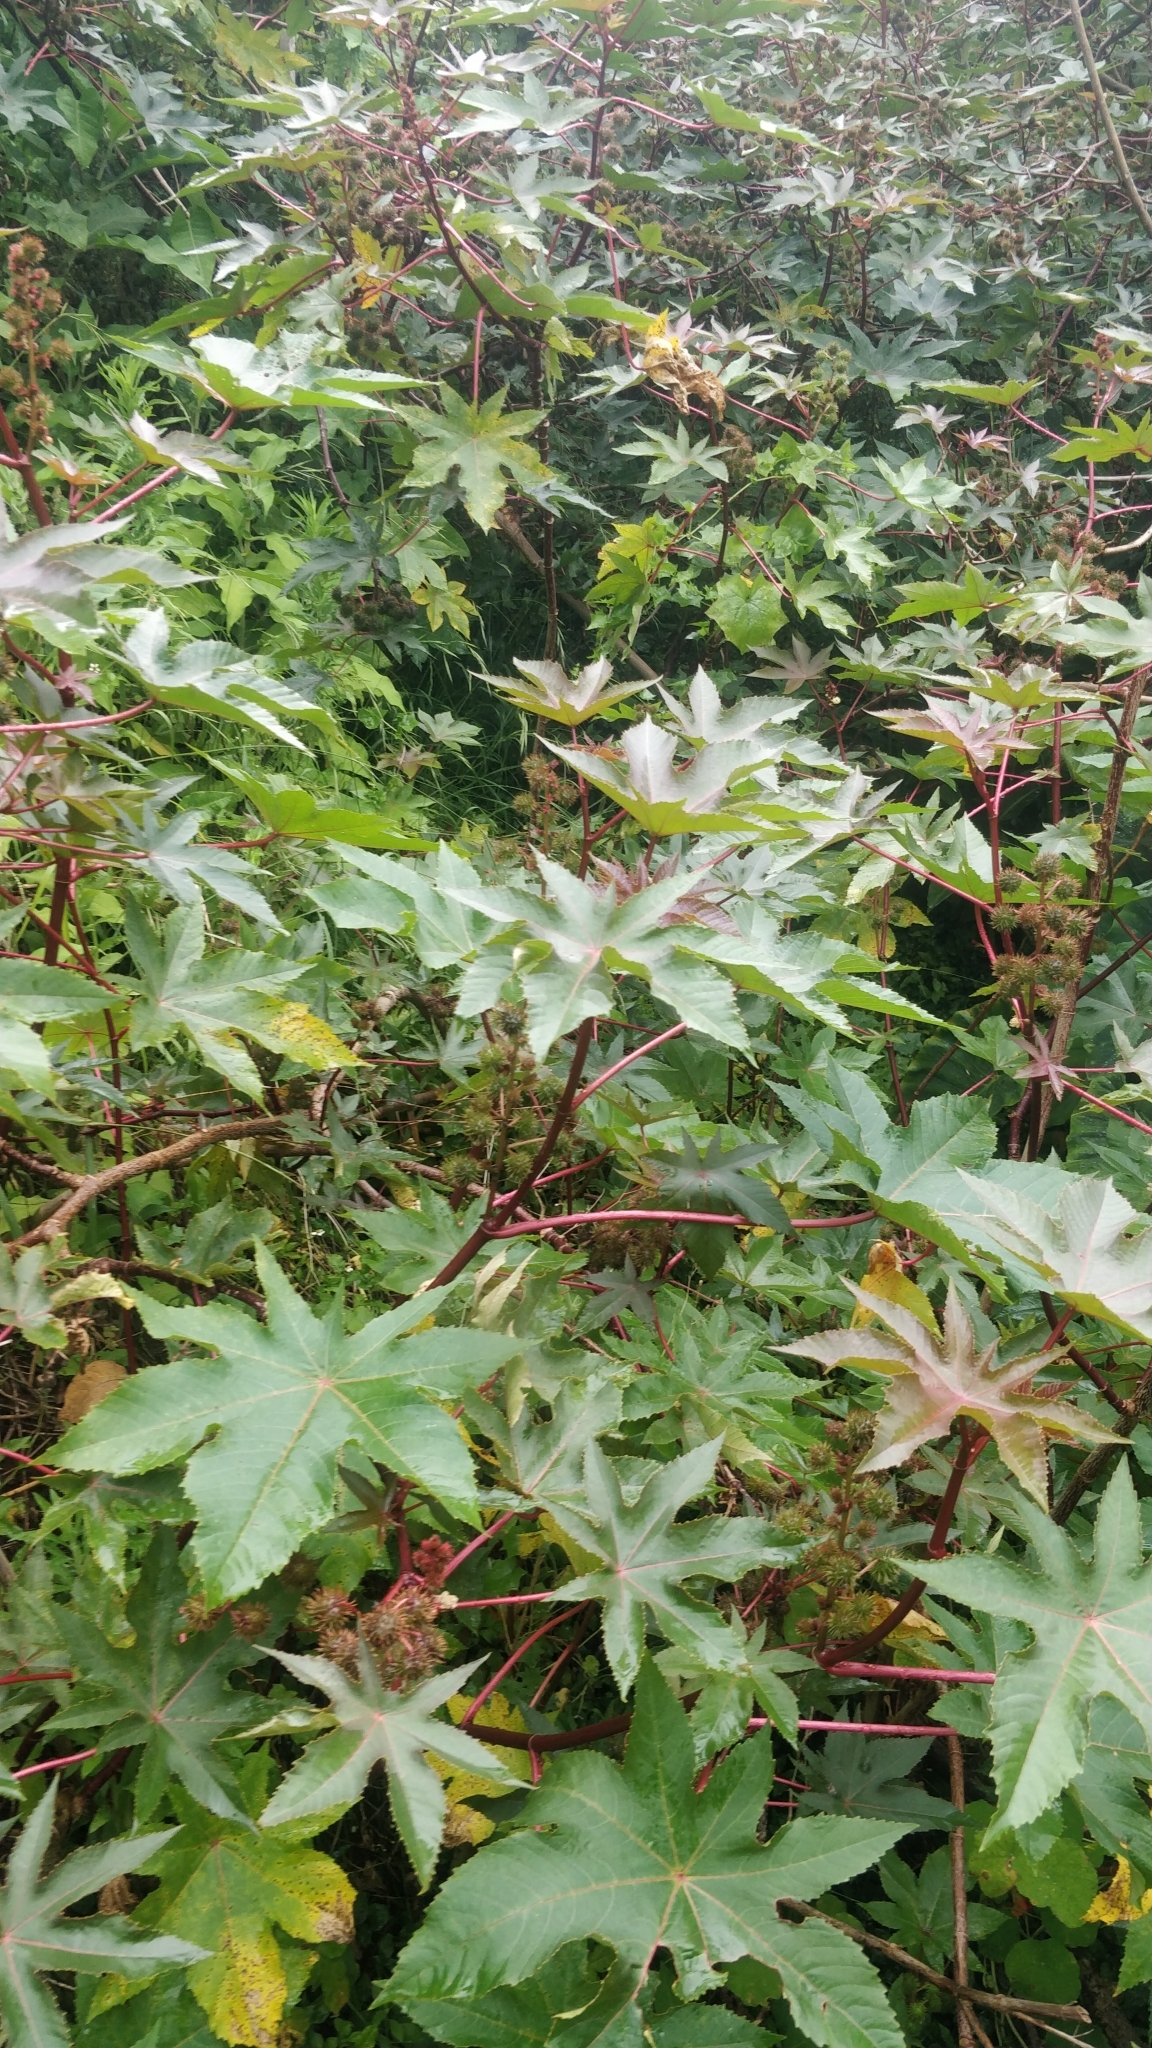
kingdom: Plantae
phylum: Tracheophyta
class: Magnoliopsida
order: Malpighiales
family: Euphorbiaceae
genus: Ricinus
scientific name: Ricinus communis
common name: Castor-oil-plant
